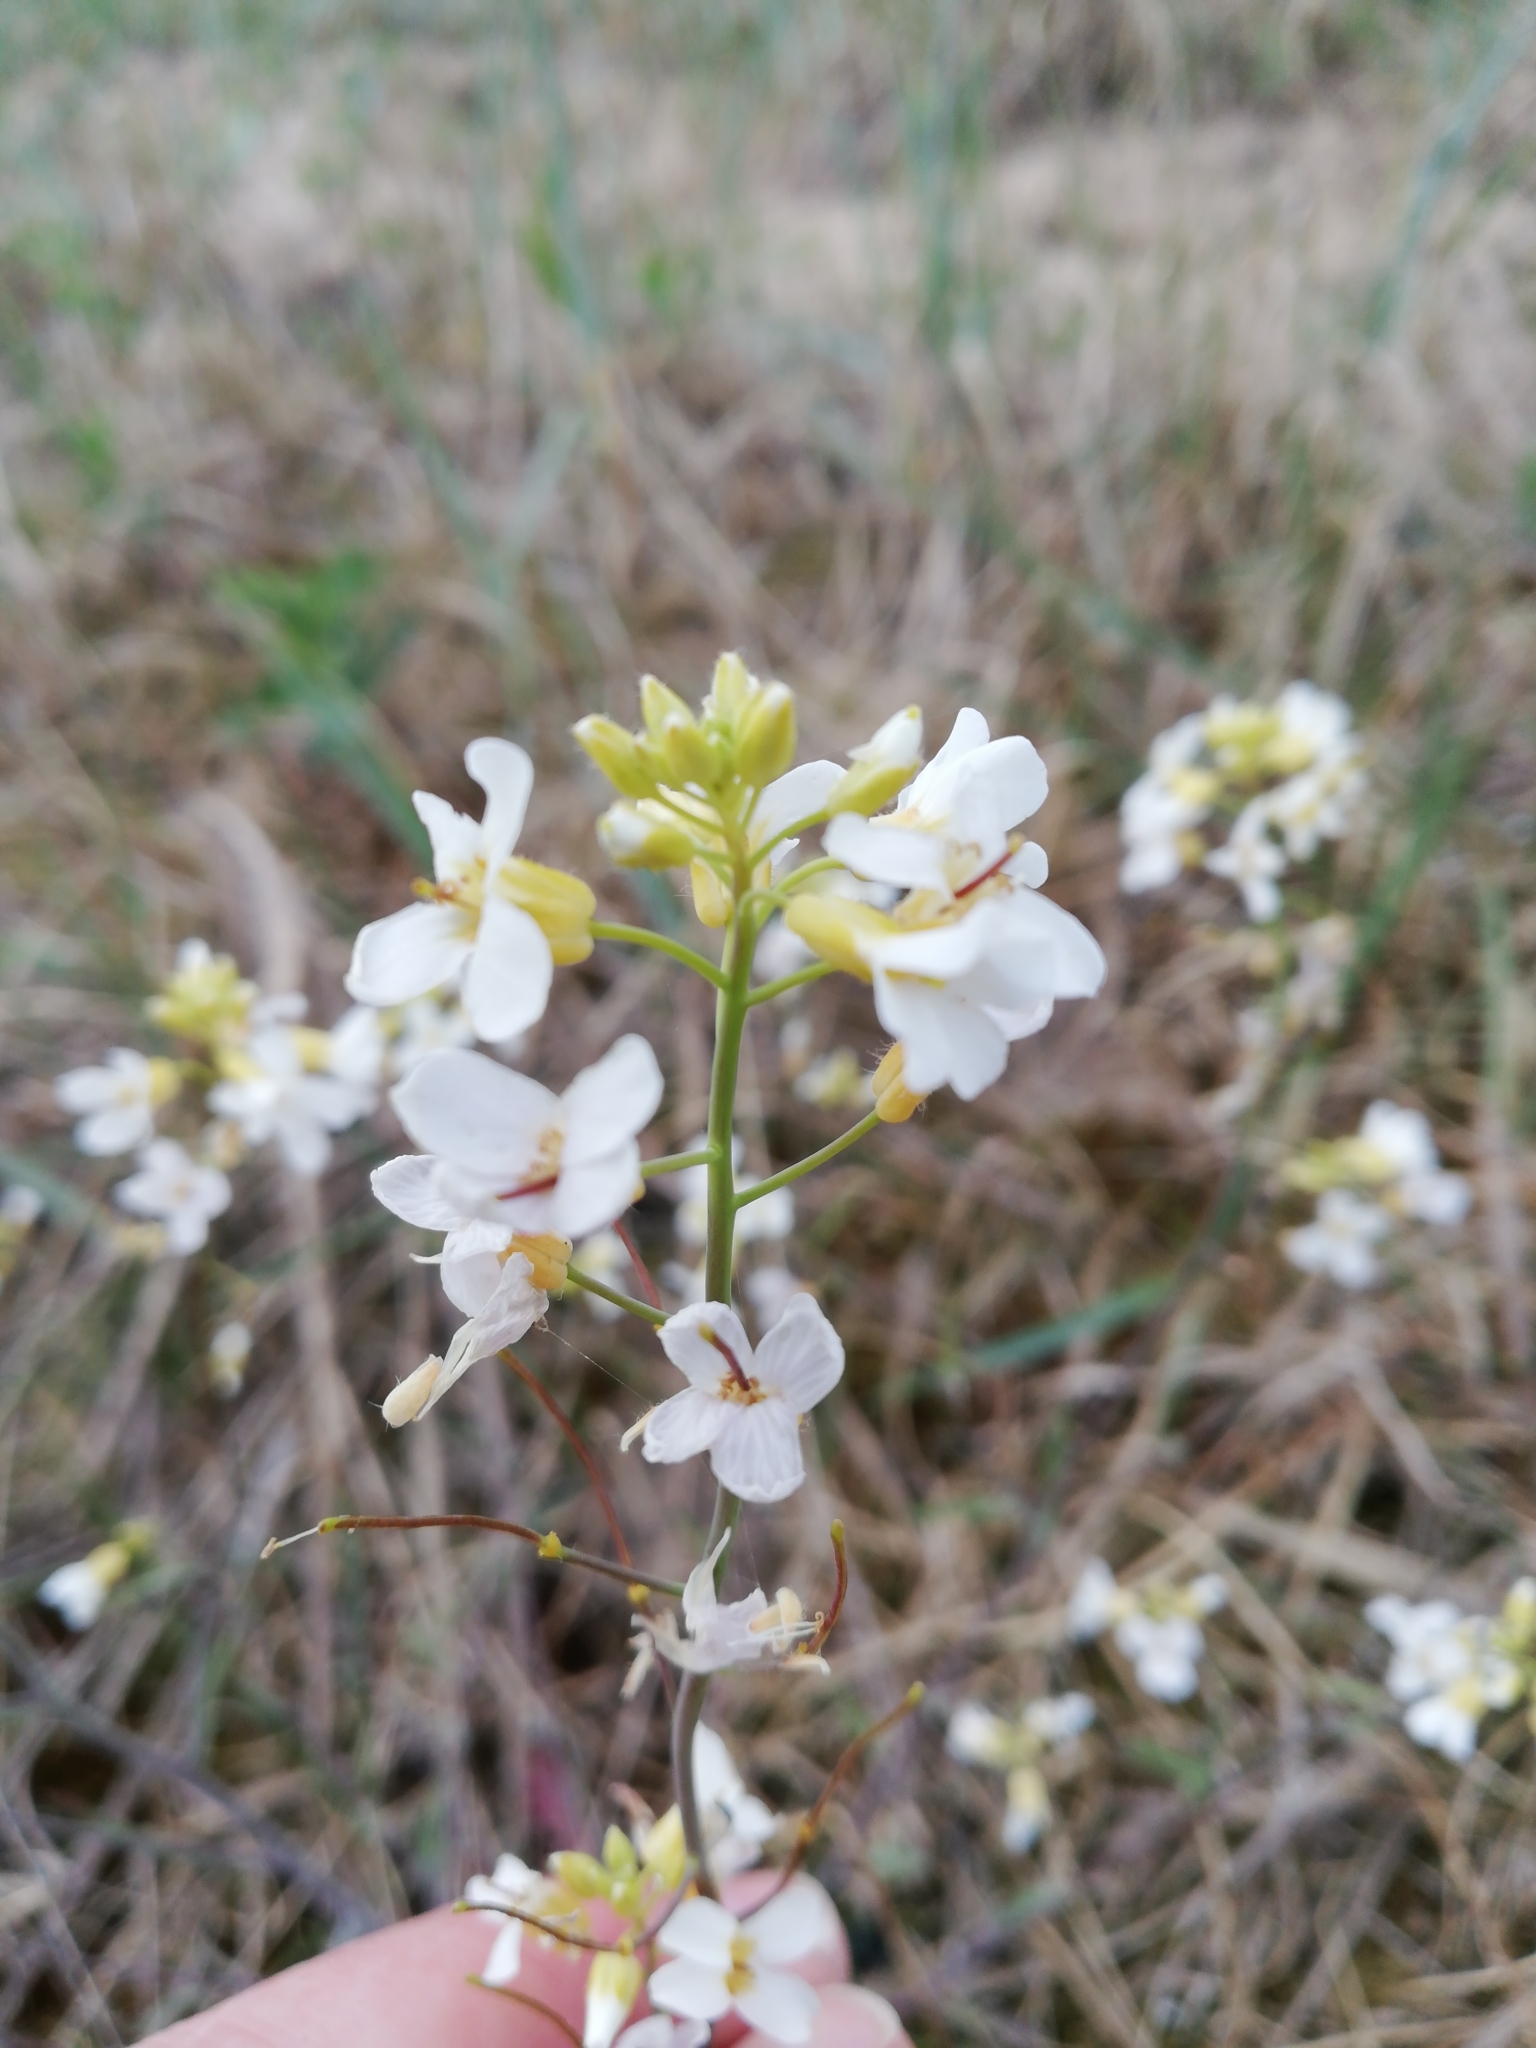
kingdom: Plantae
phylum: Tracheophyta
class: Magnoliopsida
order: Brassicales
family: Brassicaceae
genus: Arabidopsis
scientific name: Arabidopsis arenosa
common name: Sand rock-cress
